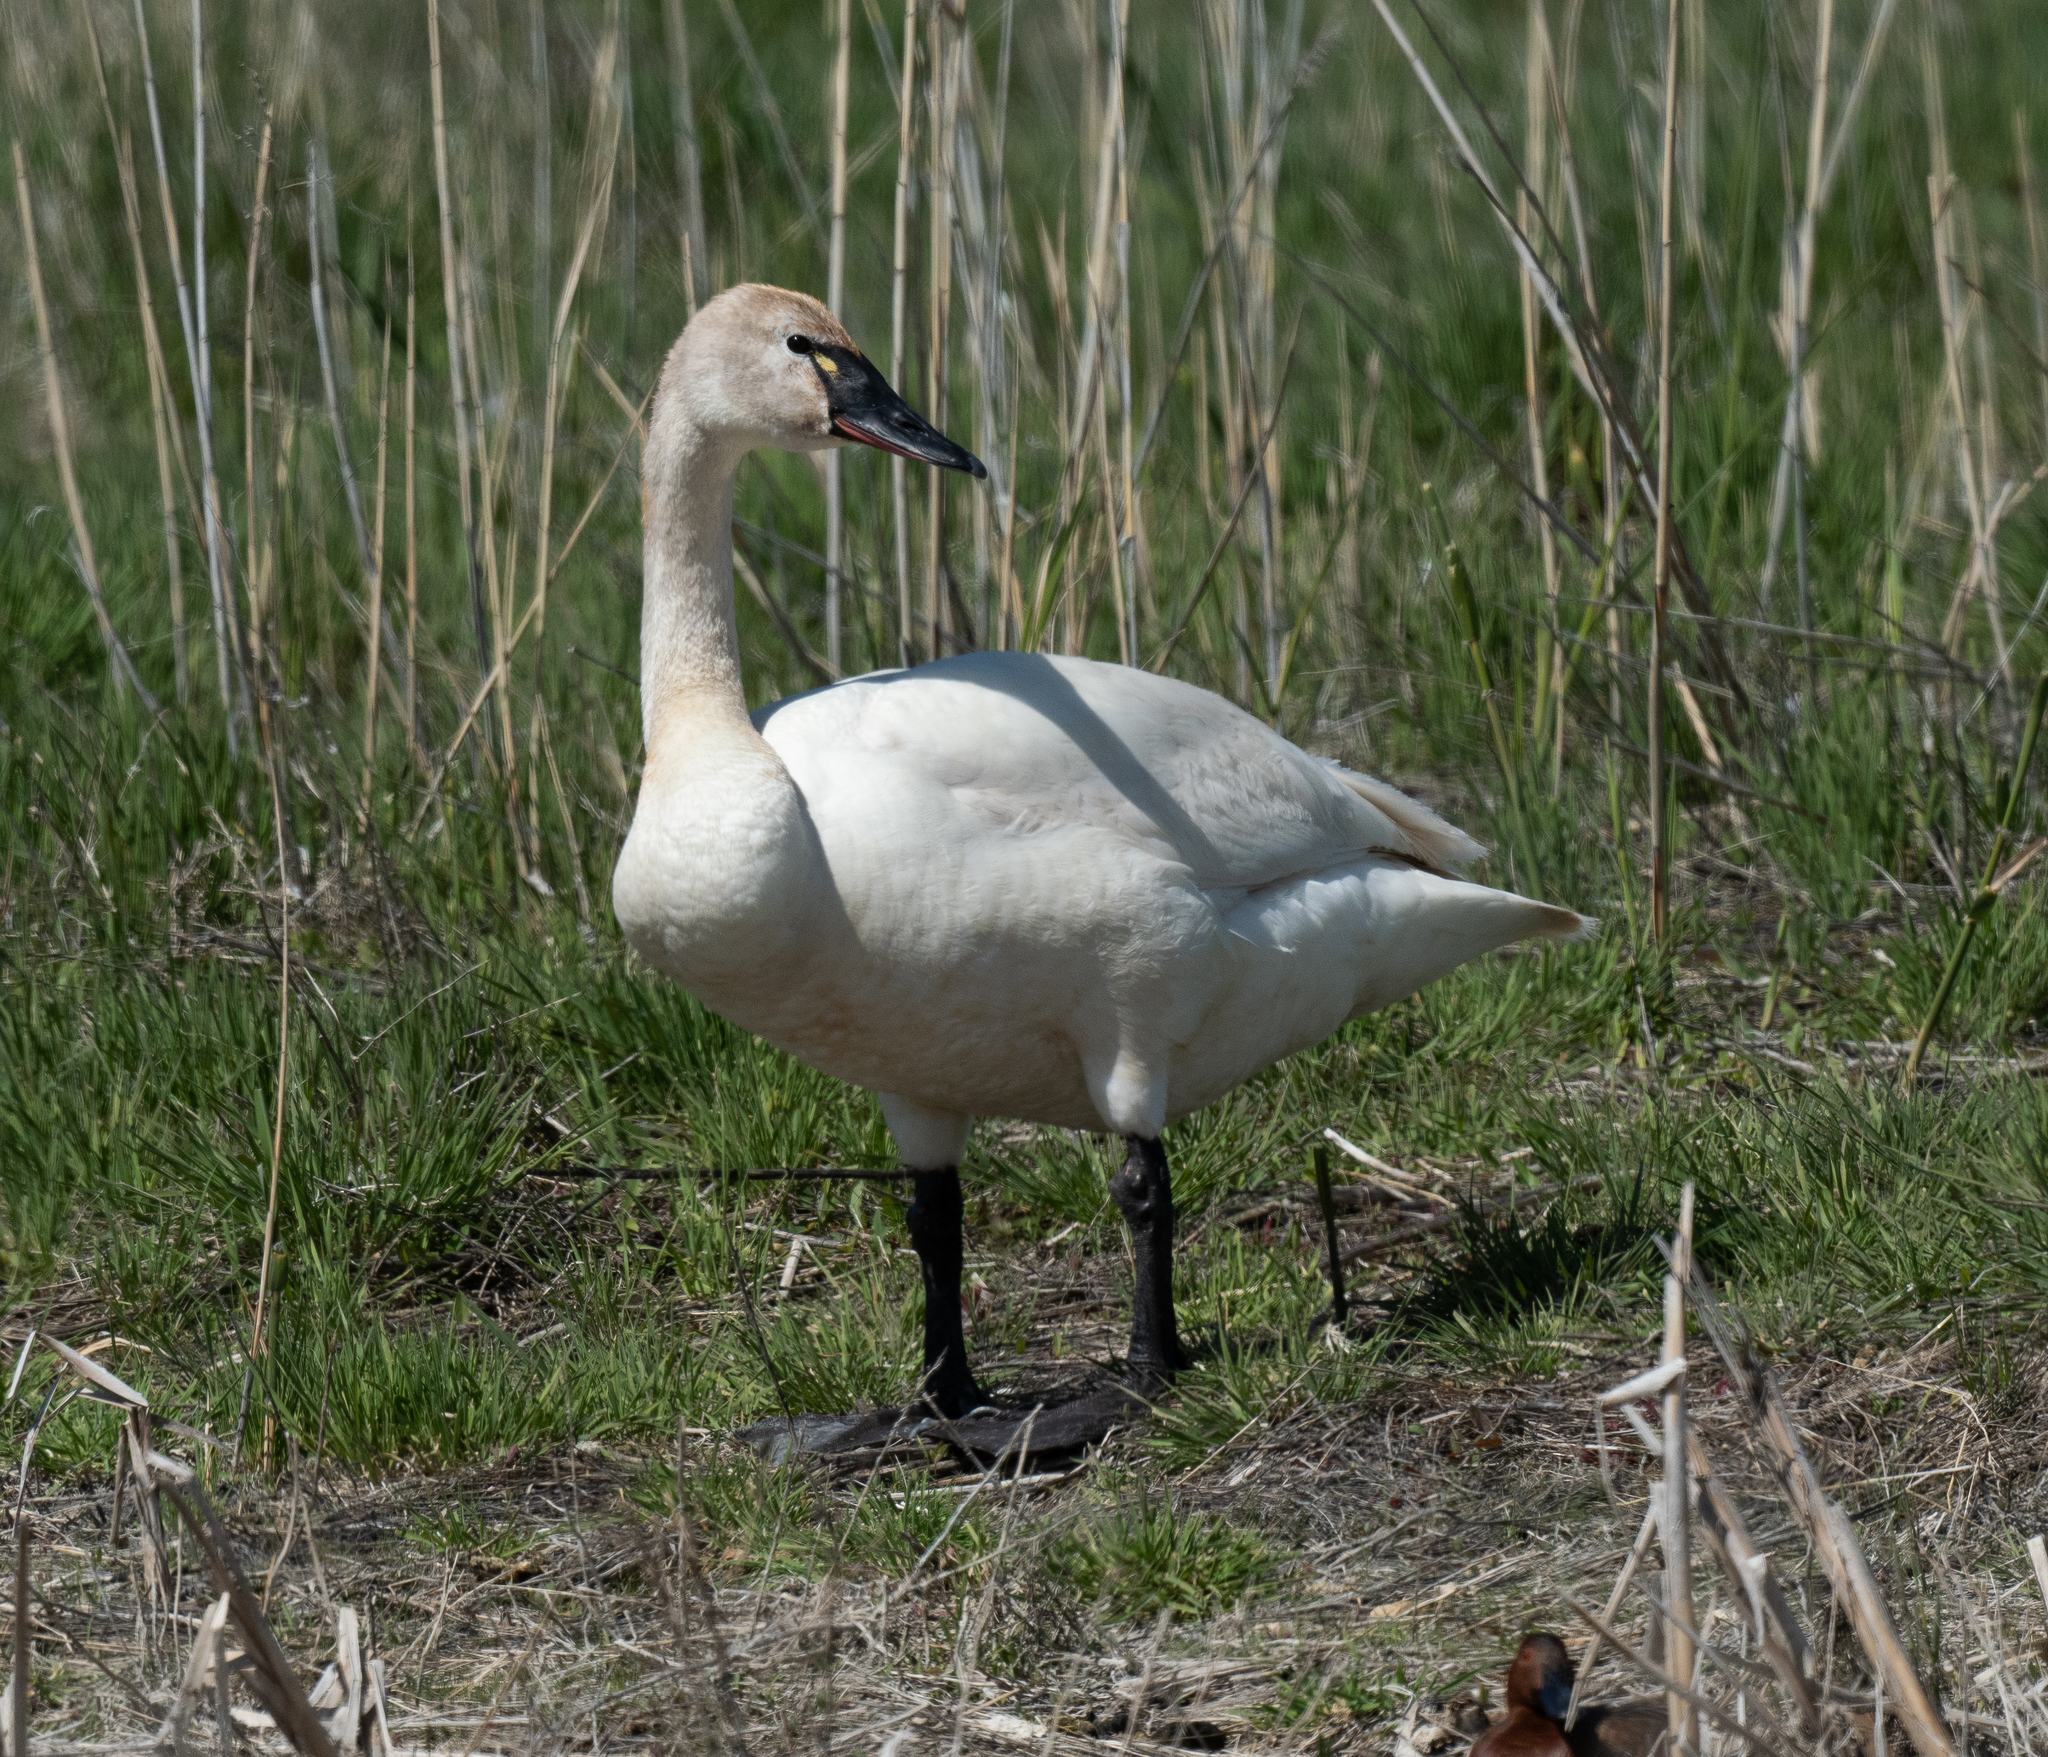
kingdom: Animalia
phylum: Chordata
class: Aves
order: Anseriformes
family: Anatidae
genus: Cygnus
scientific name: Cygnus columbianus
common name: Tundra swan
